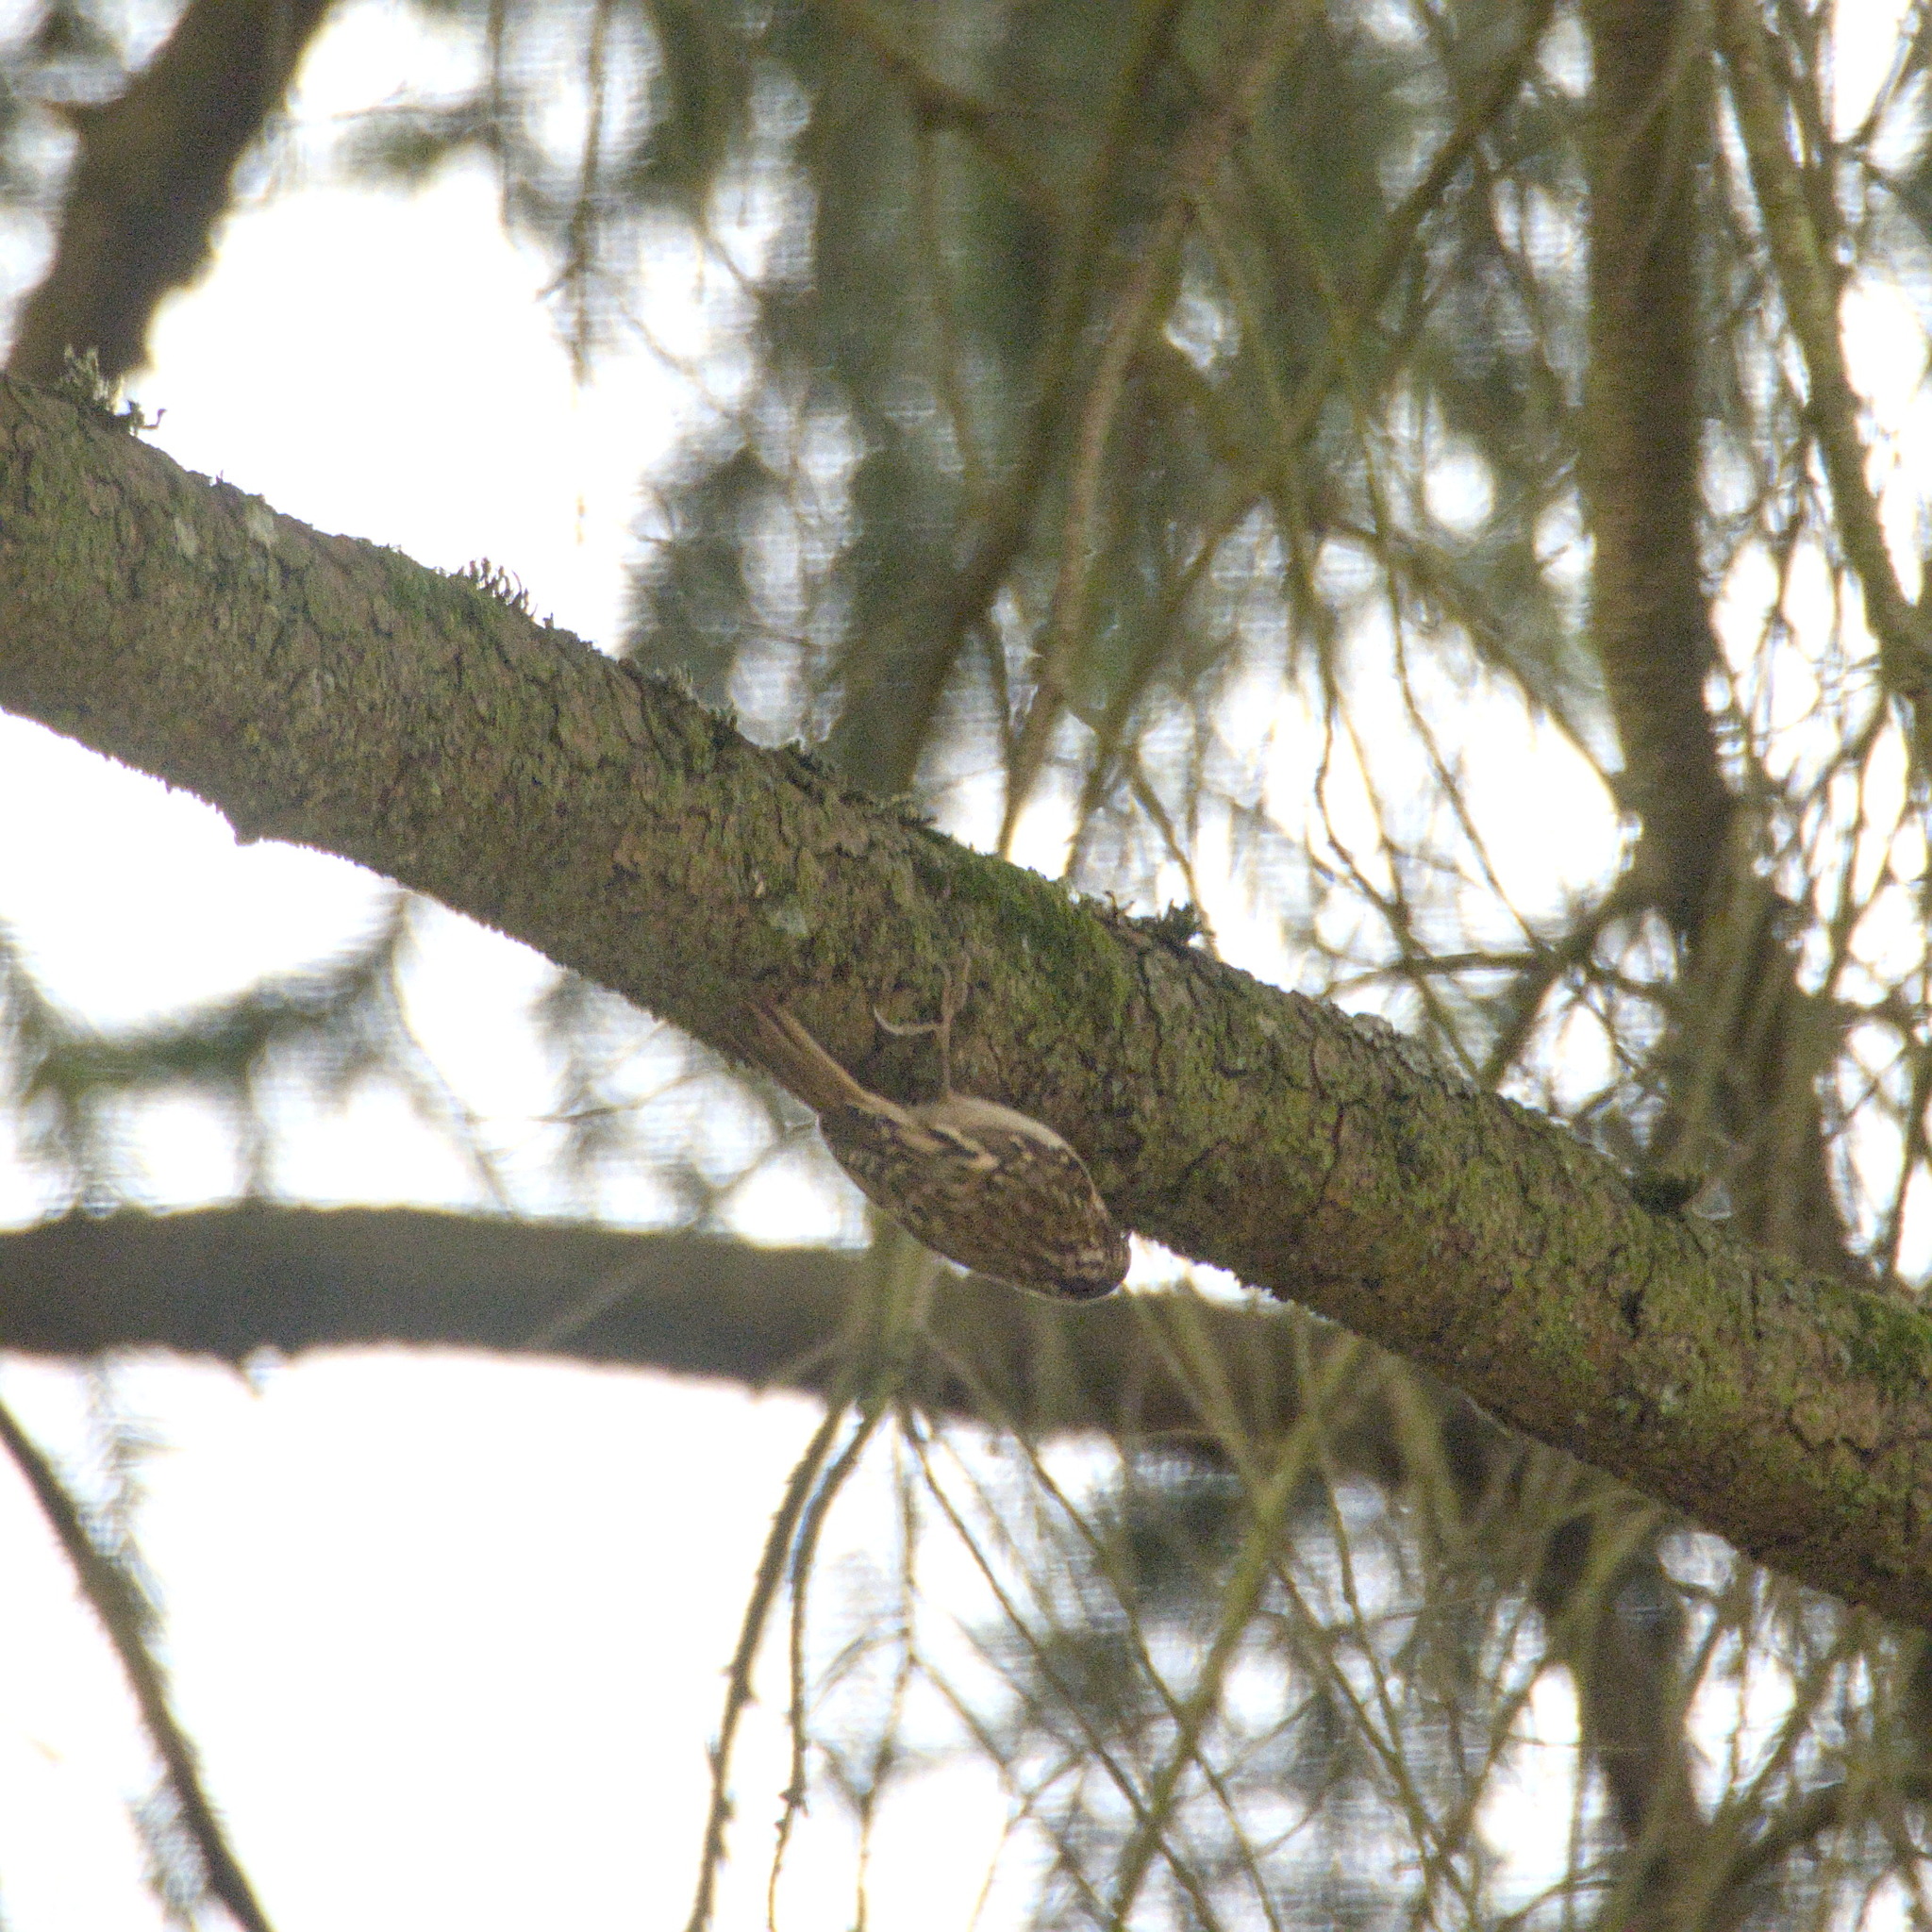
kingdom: Animalia
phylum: Chordata
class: Aves
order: Passeriformes
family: Certhiidae
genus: Certhia
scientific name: Certhia americana
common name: Brown creeper
